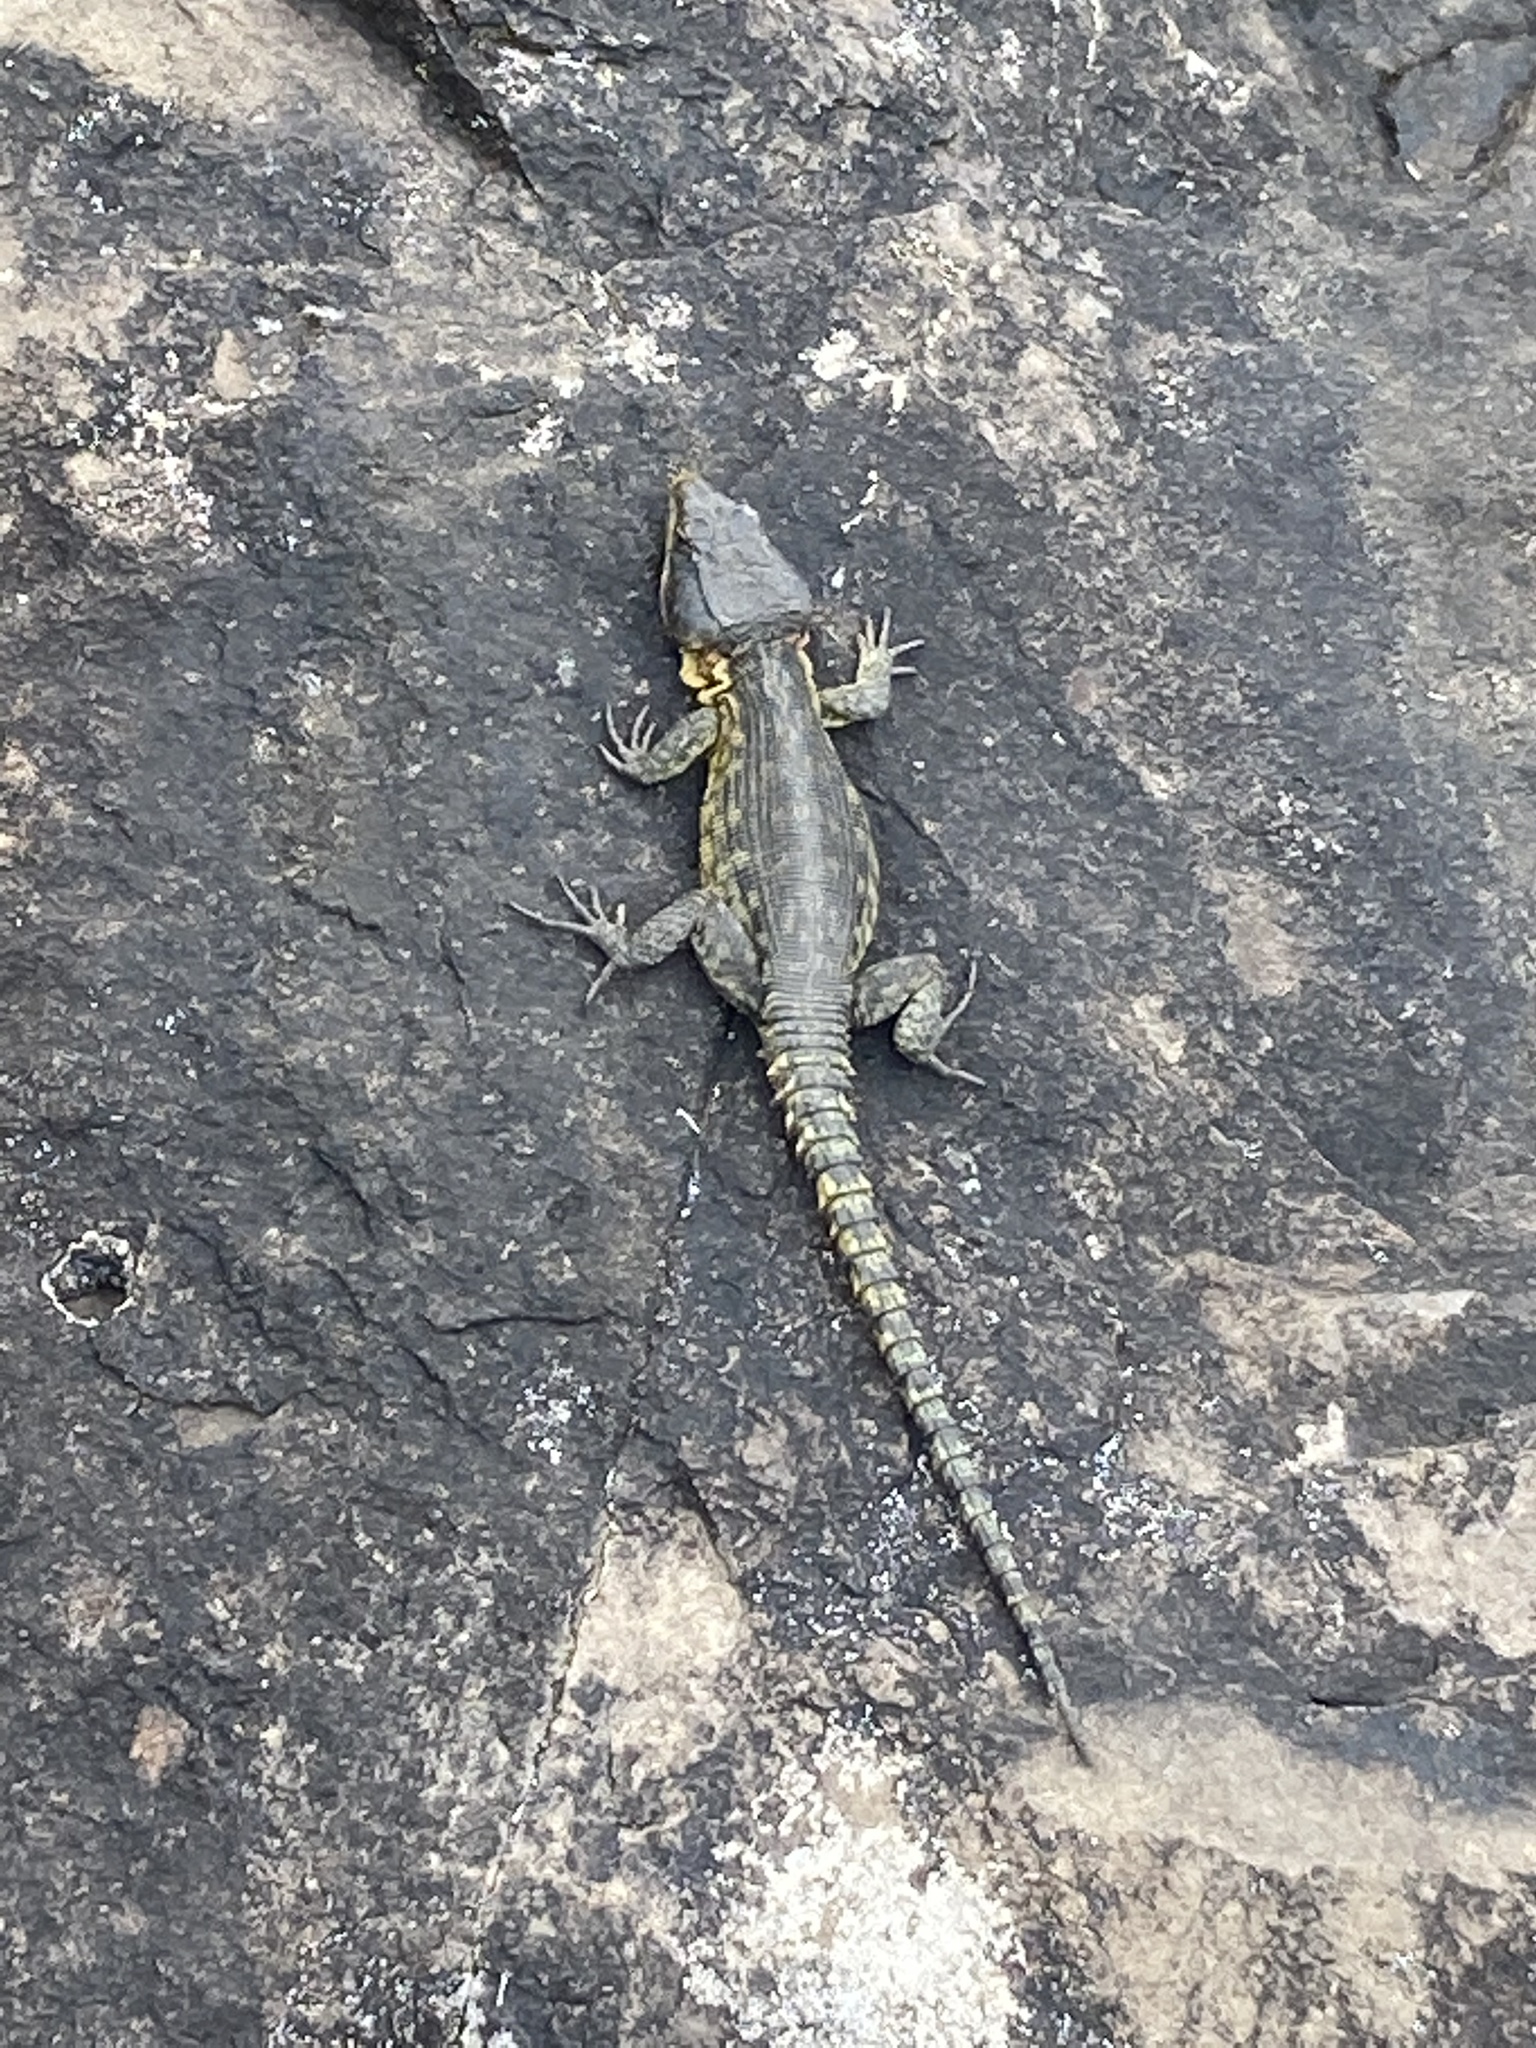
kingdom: Animalia
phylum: Chordata
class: Squamata
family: Cordylidae
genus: Pseudocordylus
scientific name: Pseudocordylus subviridis
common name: Drakensberg crag lizard
